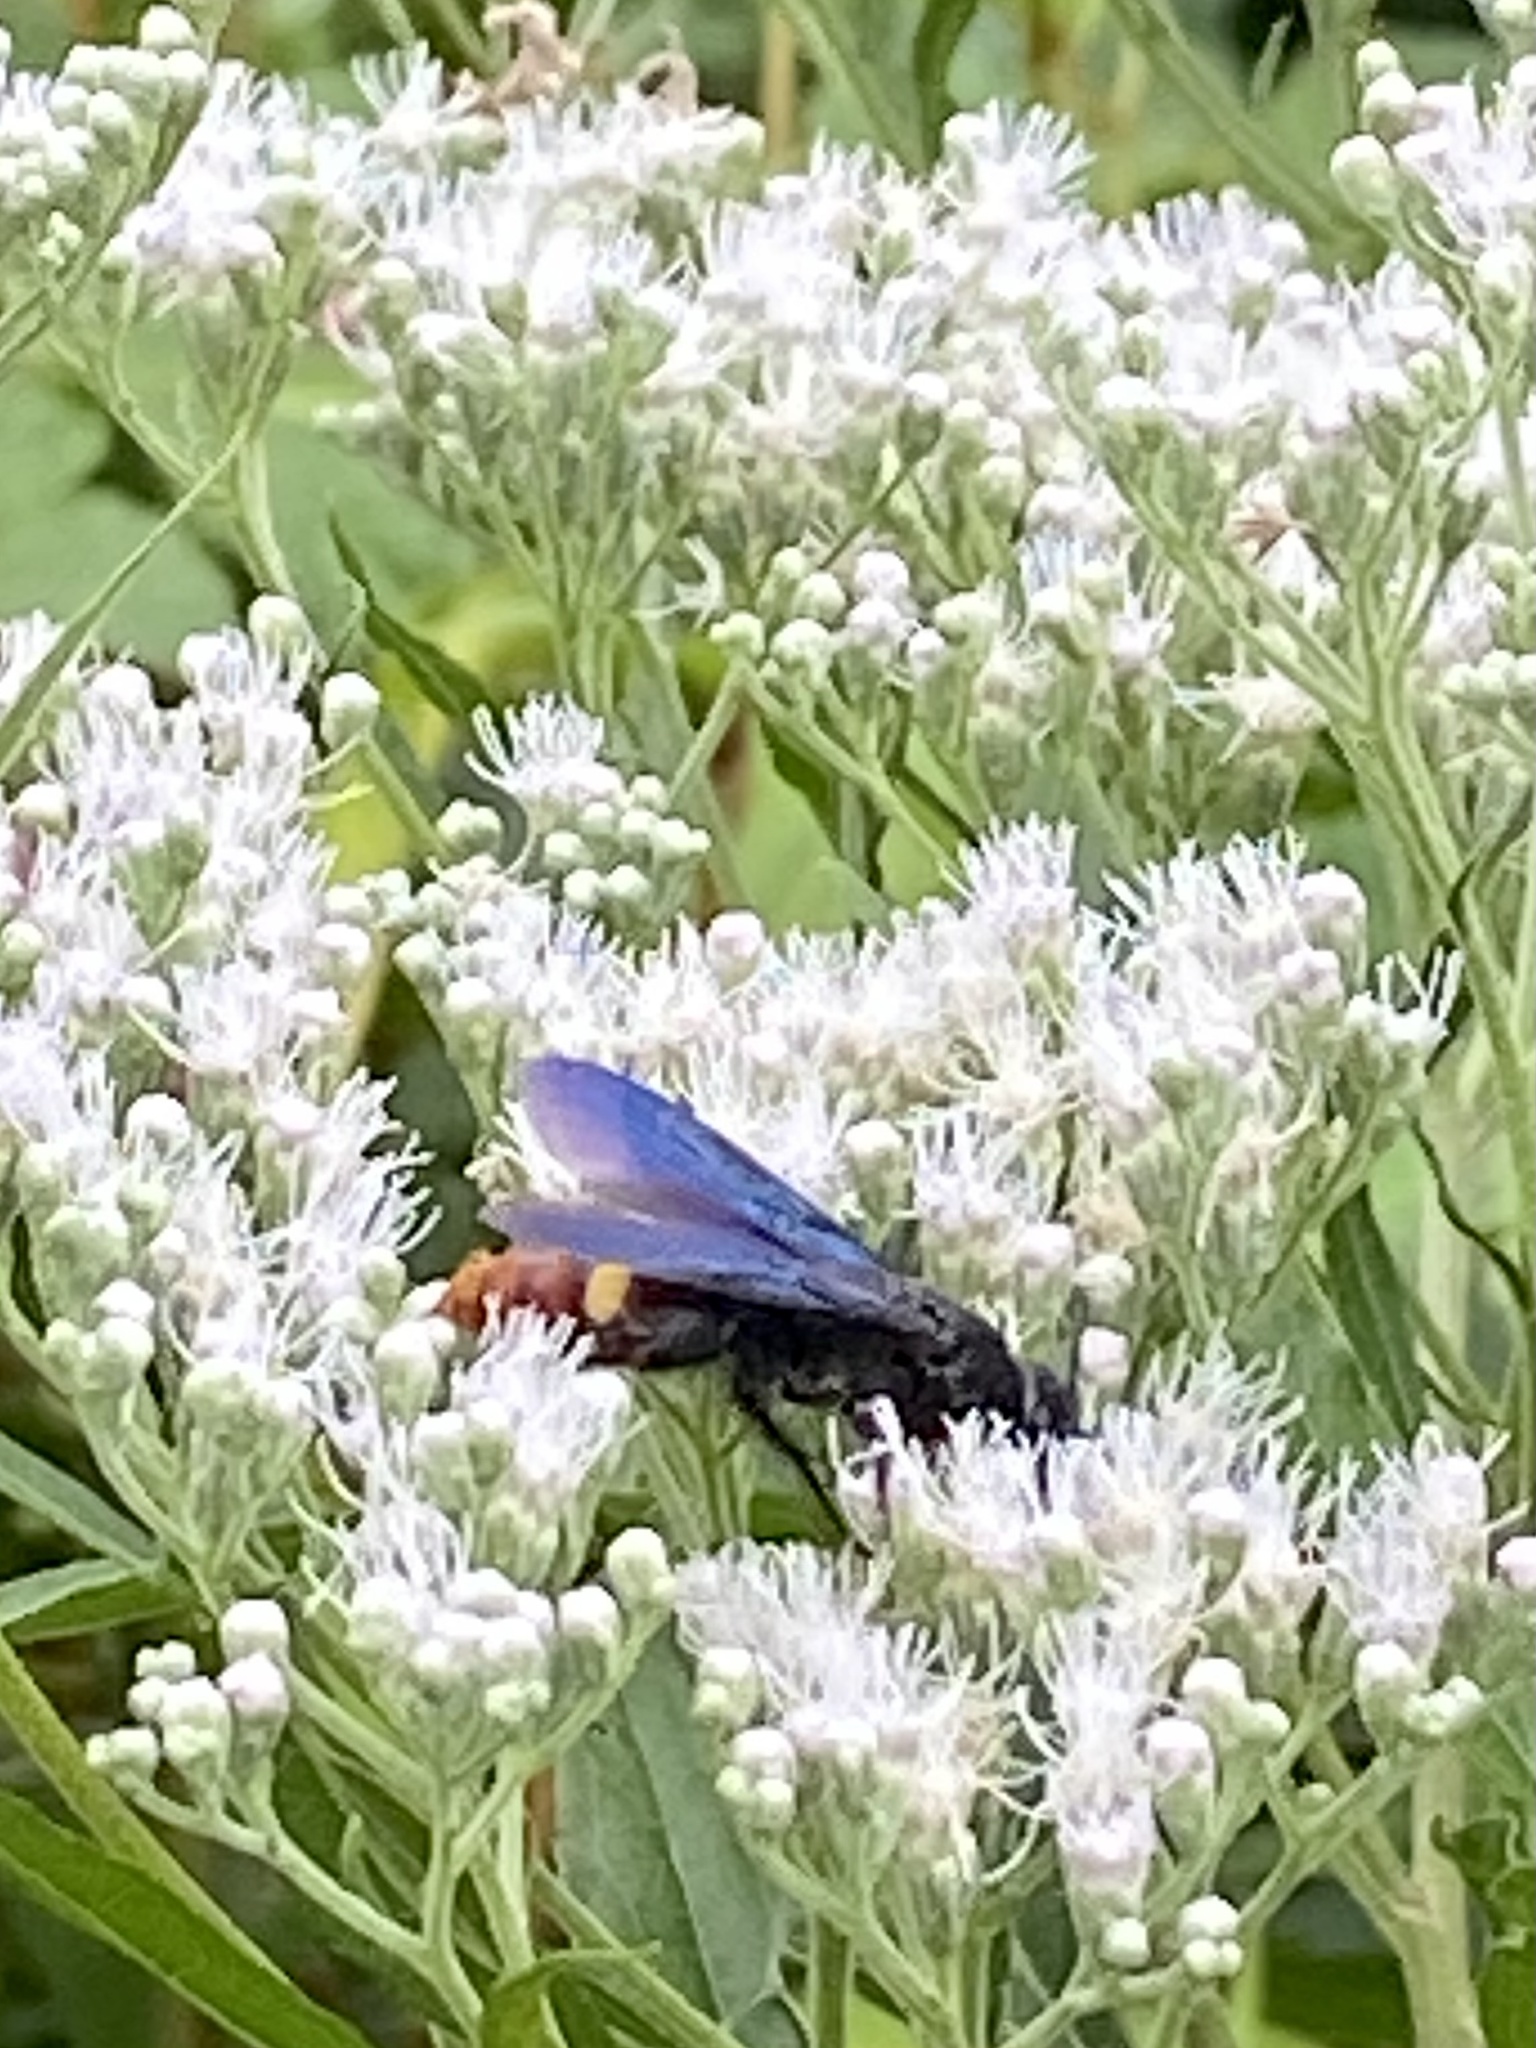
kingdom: Animalia
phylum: Arthropoda
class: Insecta
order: Hymenoptera
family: Scoliidae
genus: Scolia
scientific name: Scolia dubia
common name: Blue-winged scoliid wasp
